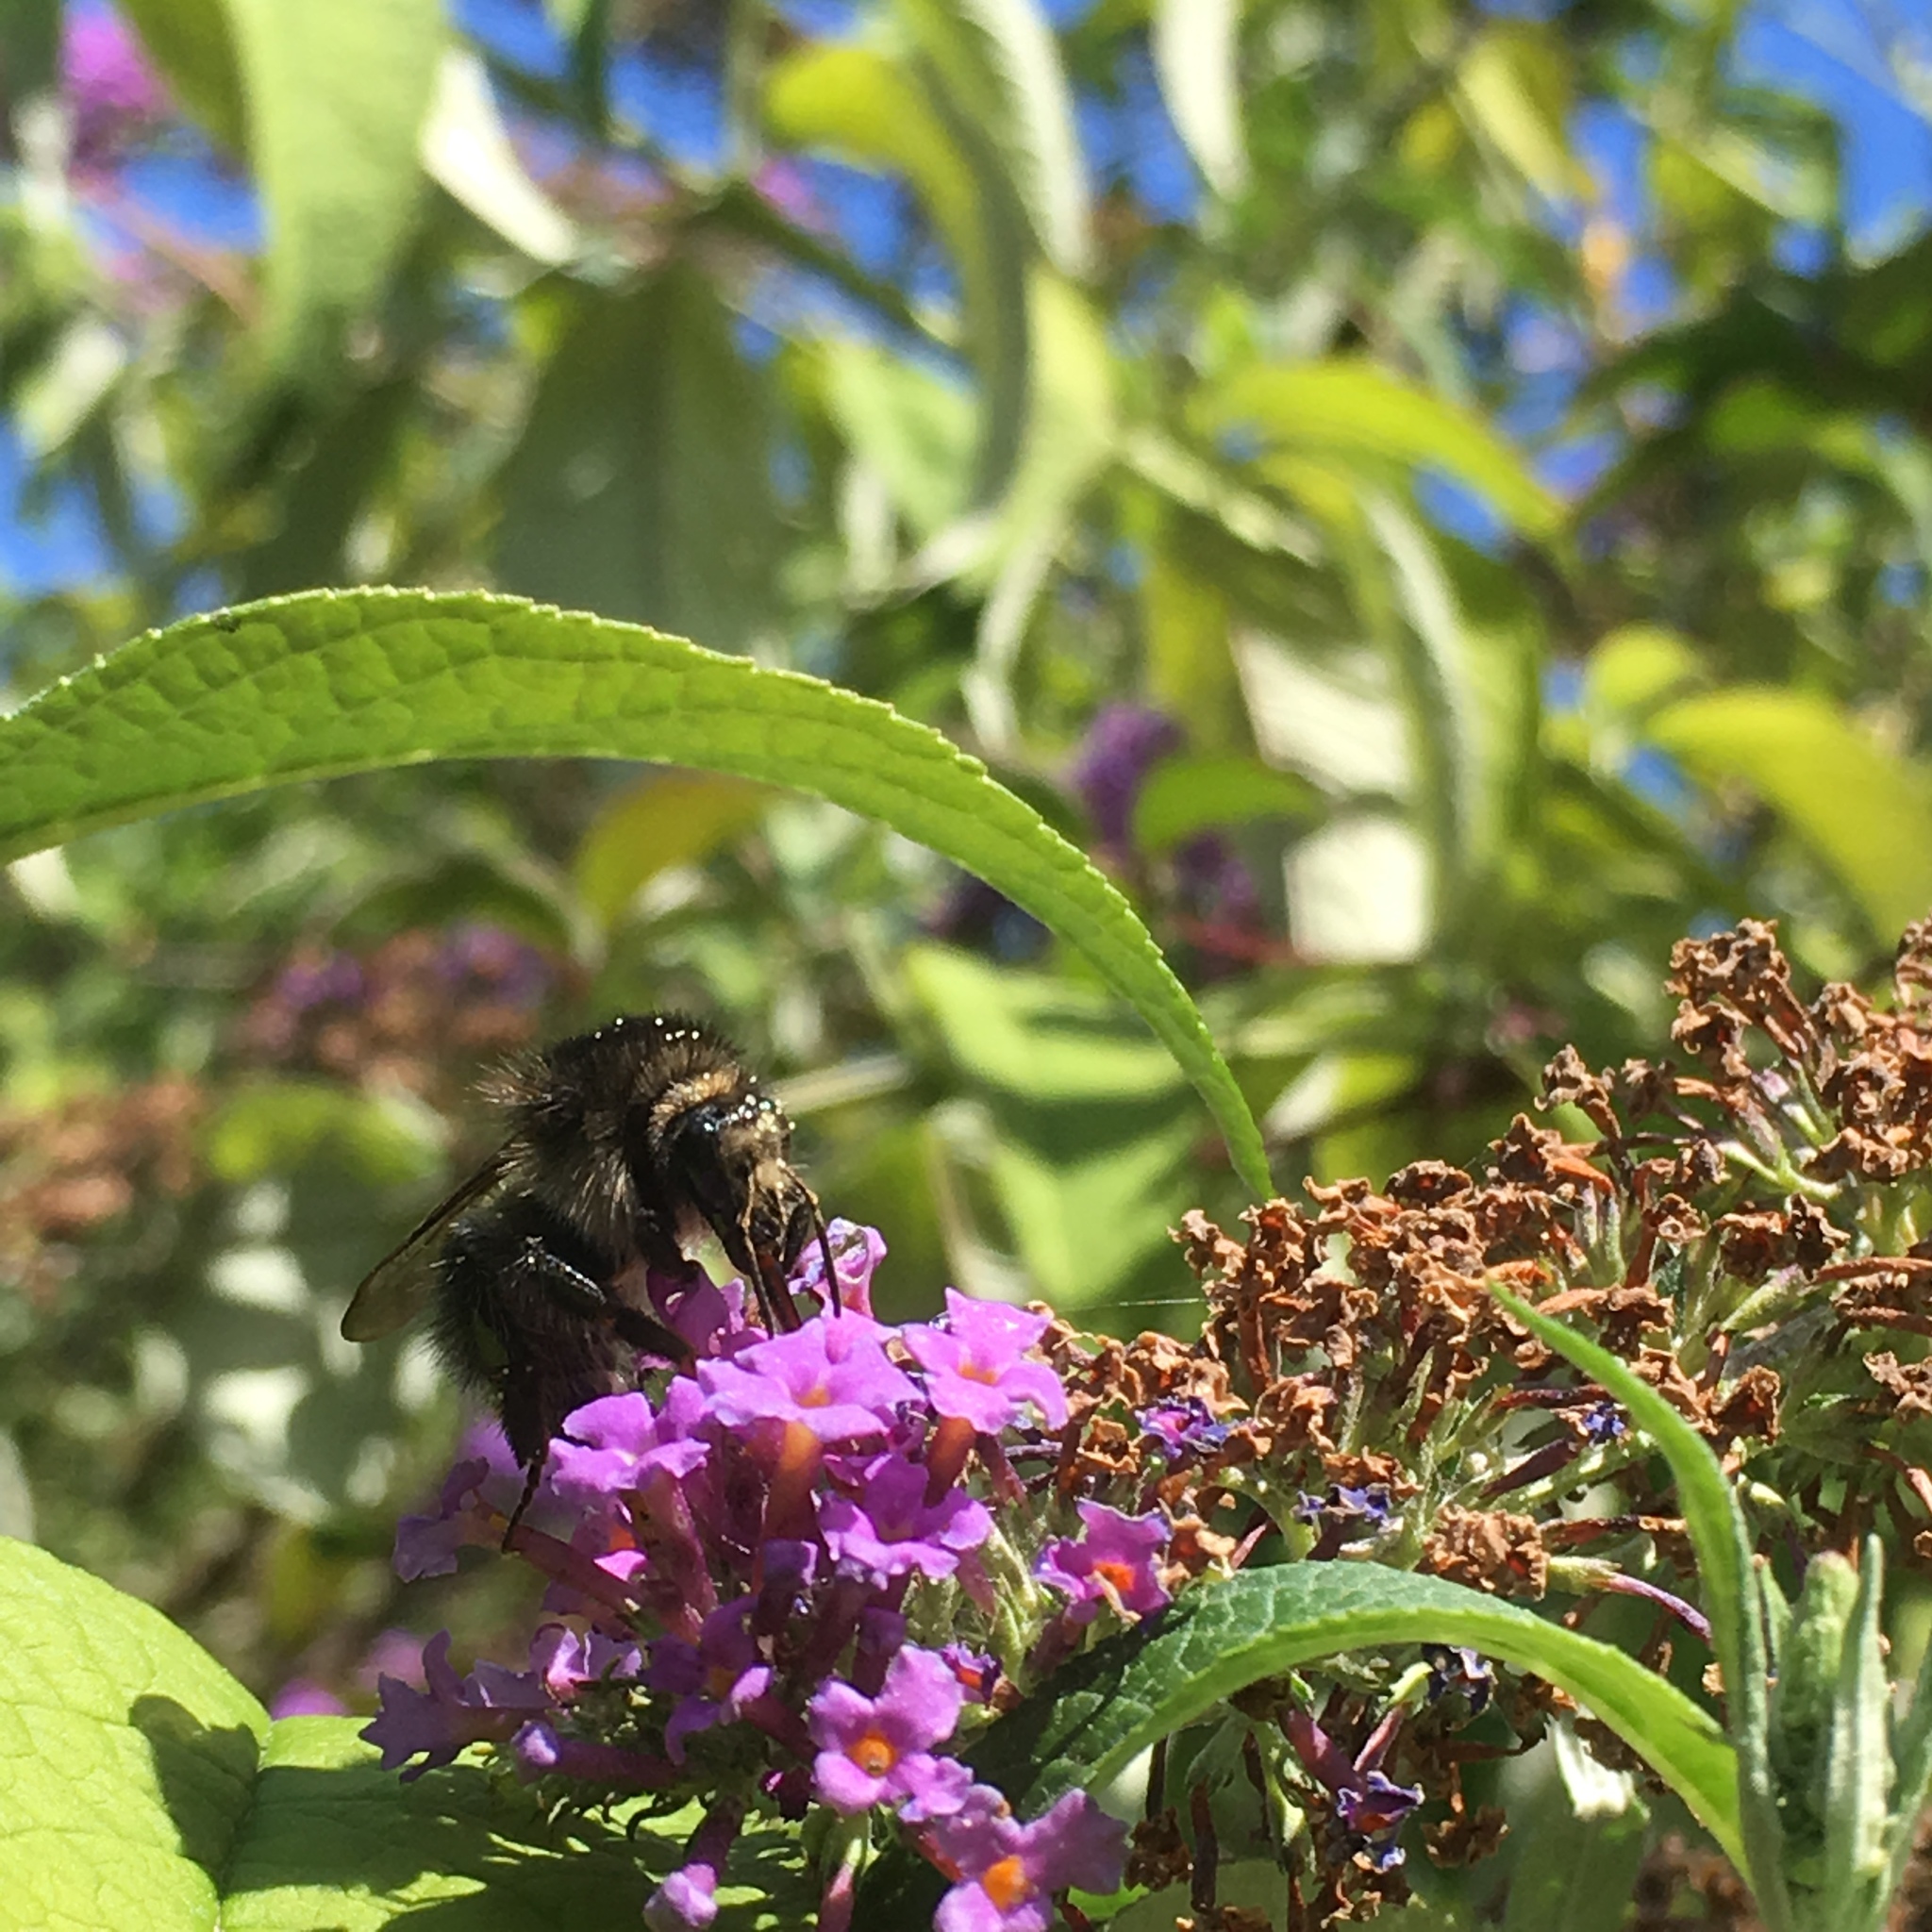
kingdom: Animalia
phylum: Arthropoda
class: Insecta
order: Hymenoptera
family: Apidae
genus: Bombus
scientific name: Bombus pascuorum
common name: Common carder bee
